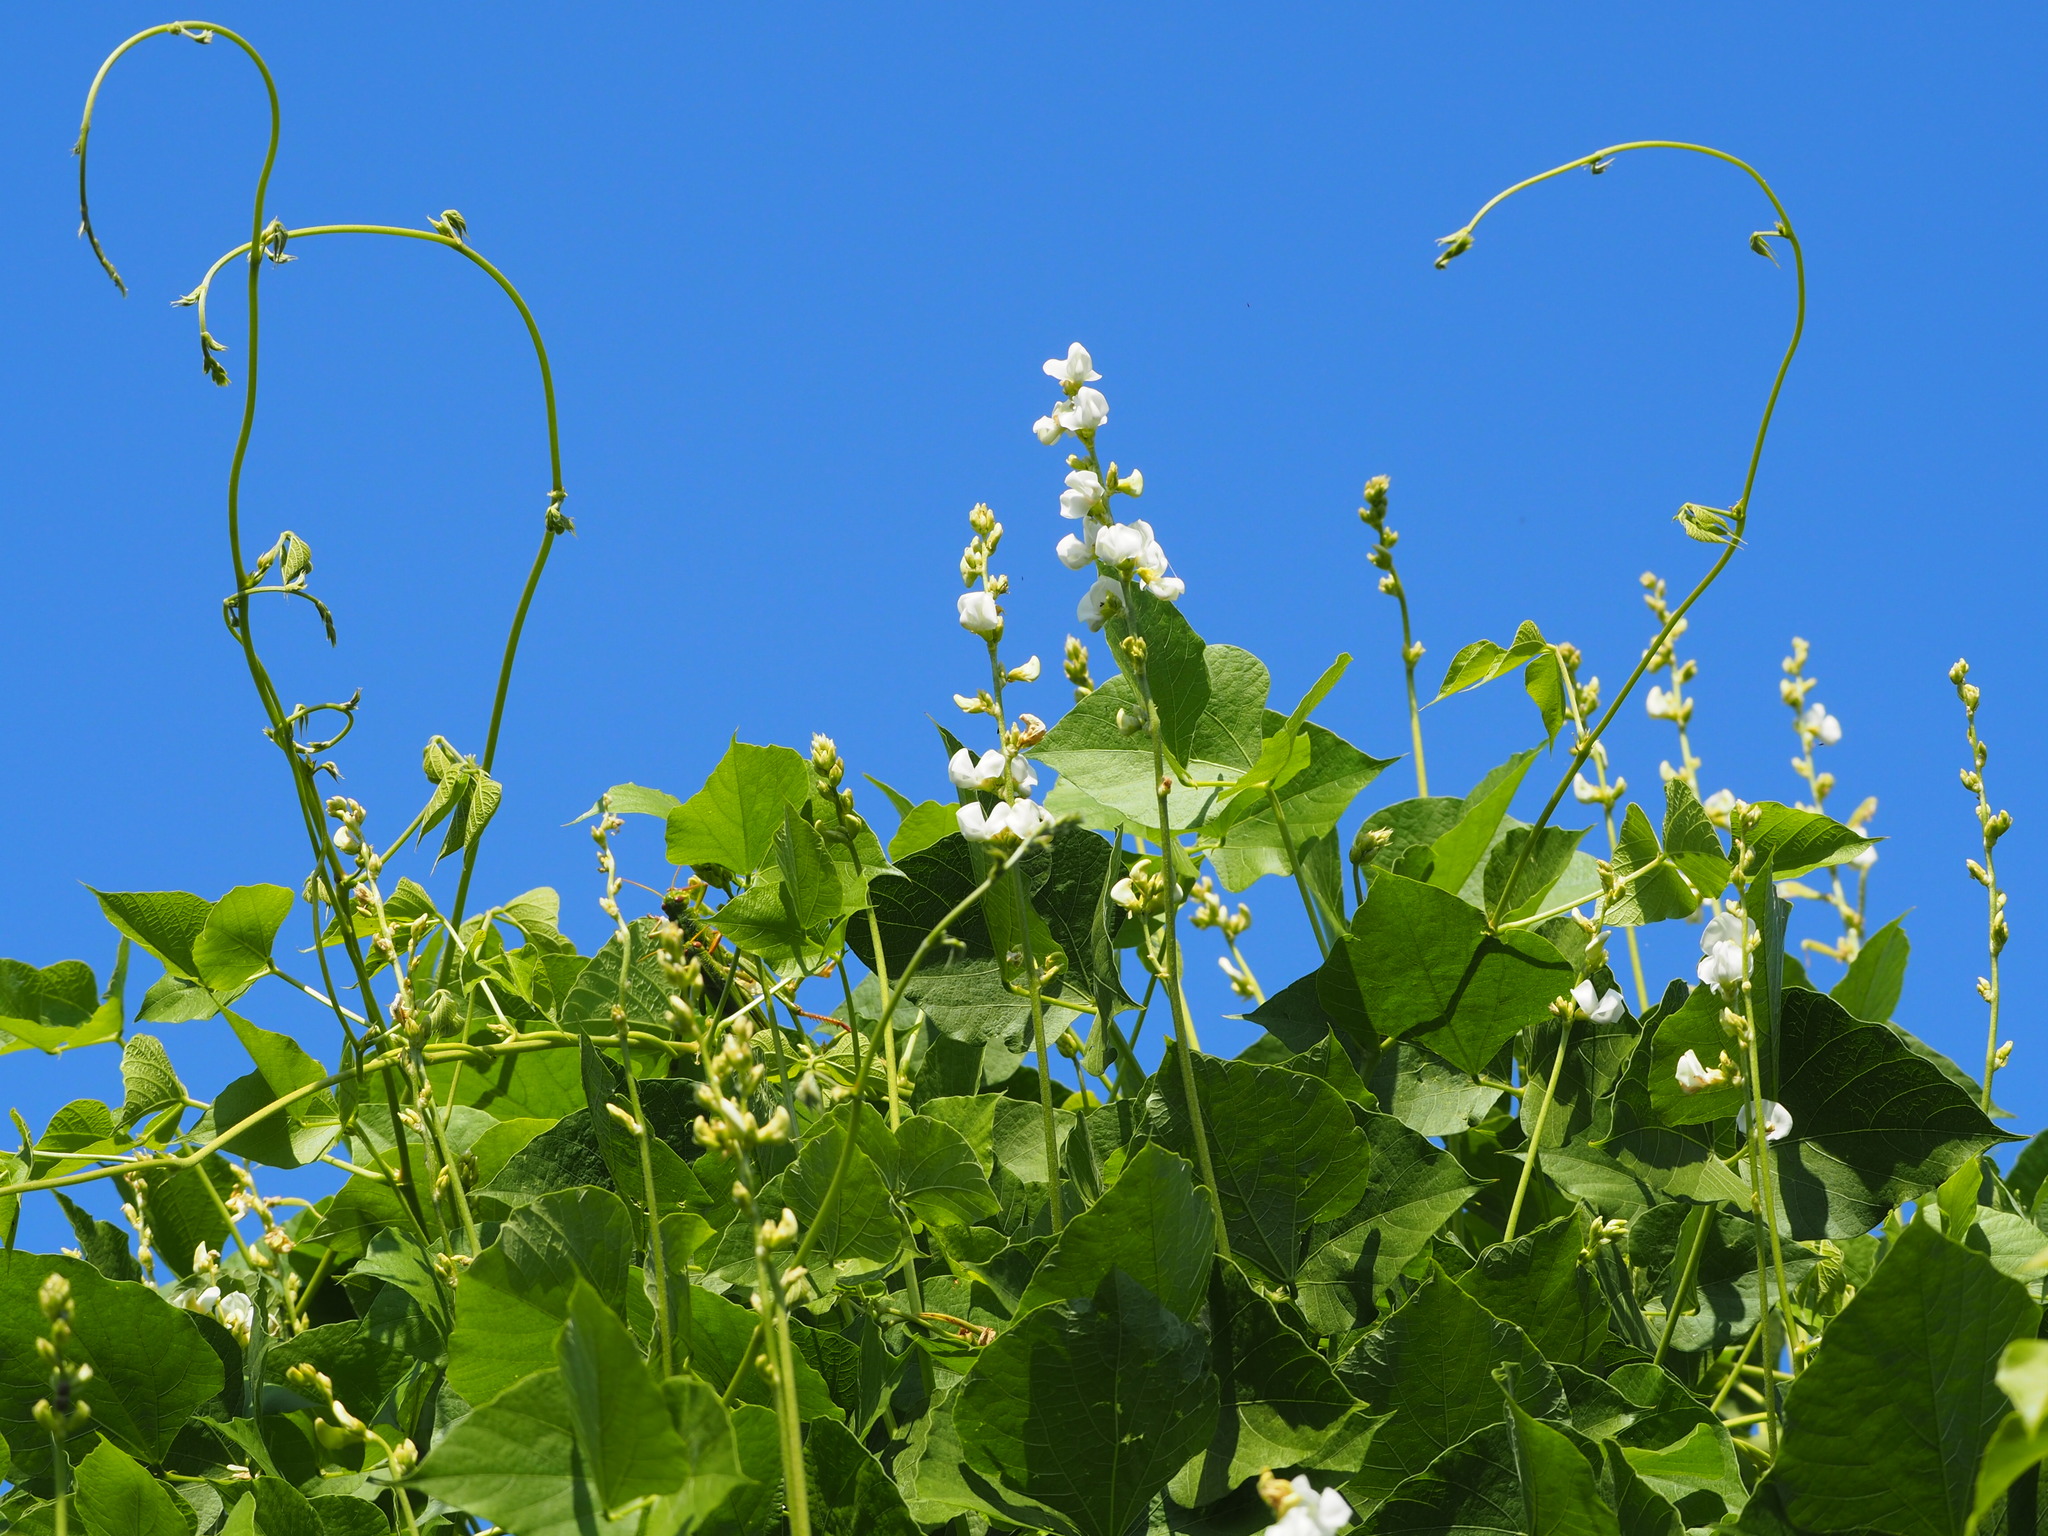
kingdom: Plantae
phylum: Tracheophyta
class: Magnoliopsida
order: Fabales
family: Fabaceae
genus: Lablab
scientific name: Lablab purpureus
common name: Lablab-bean
